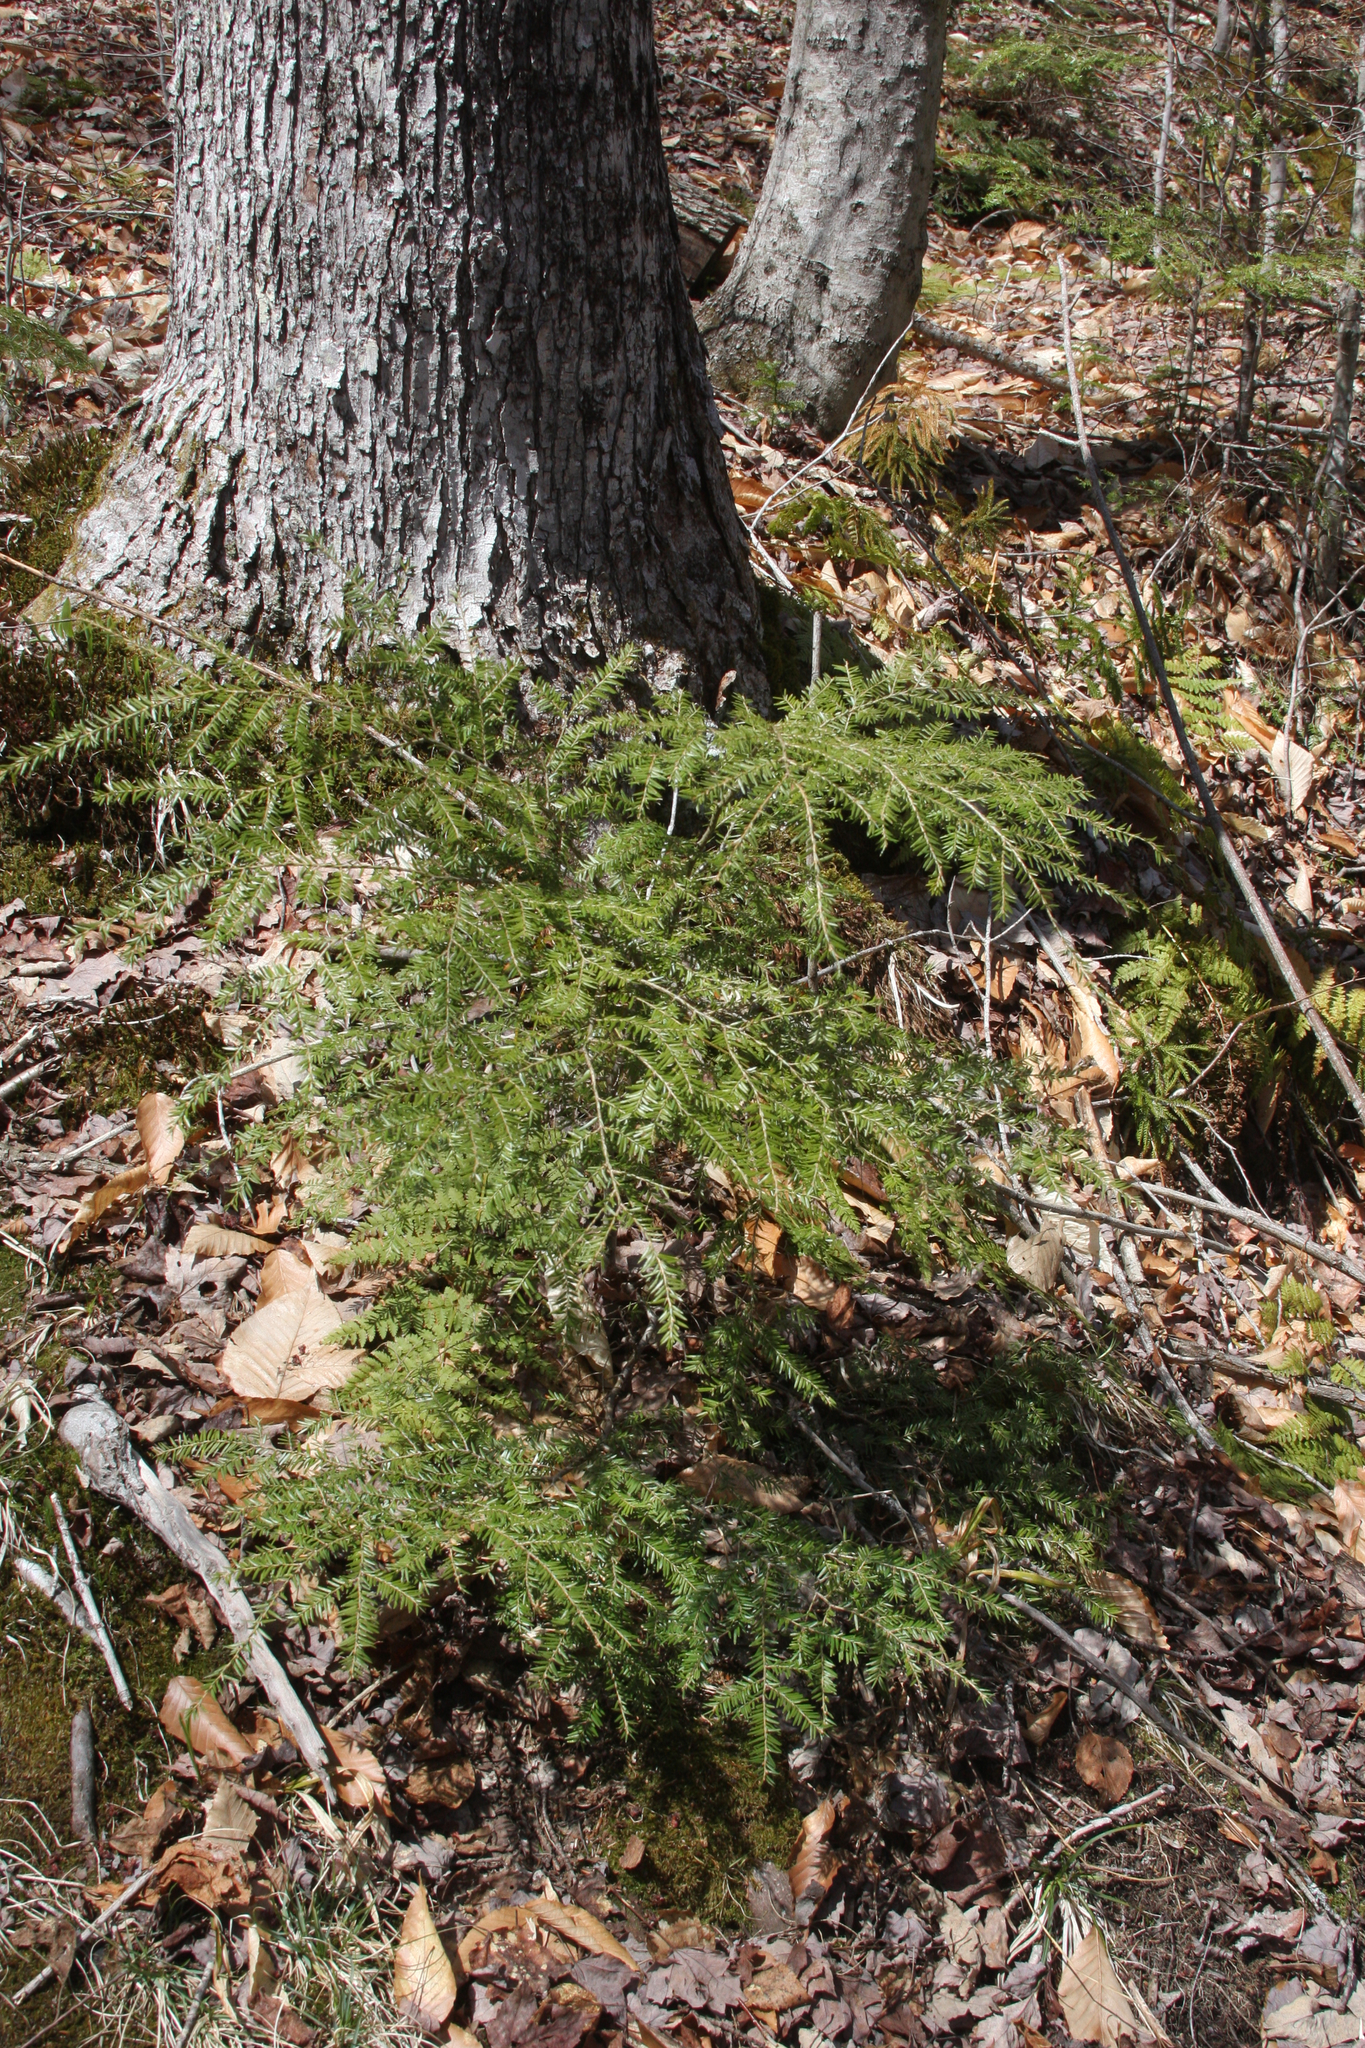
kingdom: Plantae
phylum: Tracheophyta
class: Pinopsida
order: Pinales
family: Pinaceae
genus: Tsuga
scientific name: Tsuga canadensis
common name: Eastern hemlock
